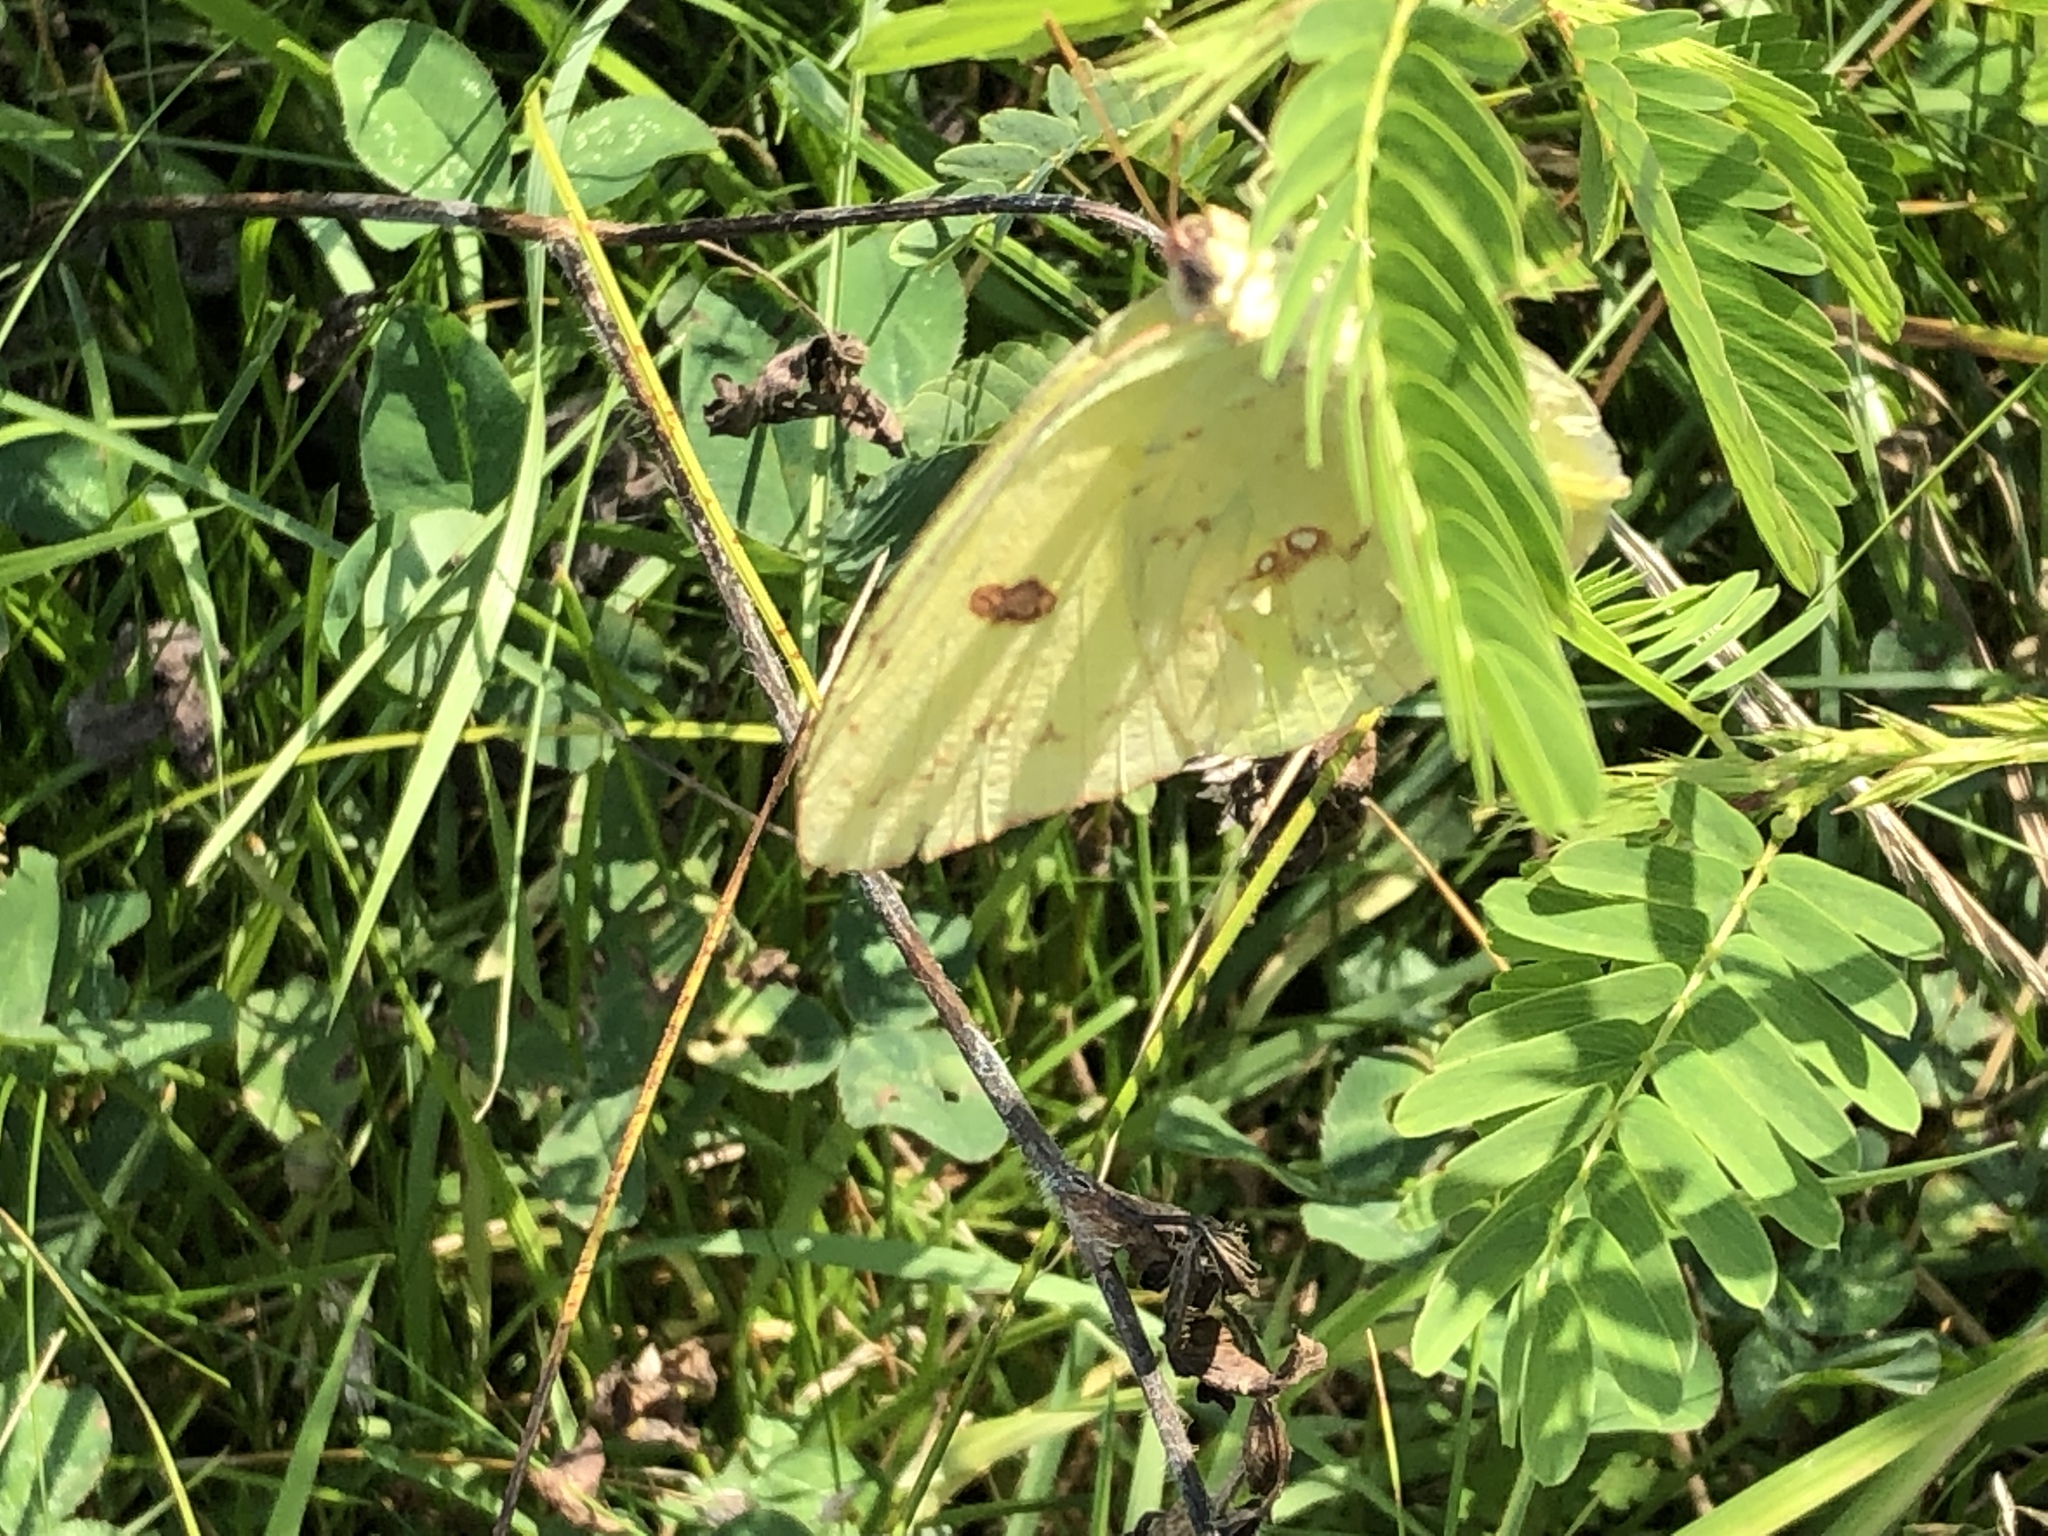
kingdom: Animalia
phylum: Arthropoda
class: Insecta
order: Lepidoptera
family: Pieridae
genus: Phoebis
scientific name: Phoebis sennae
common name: Cloudless sulphur
